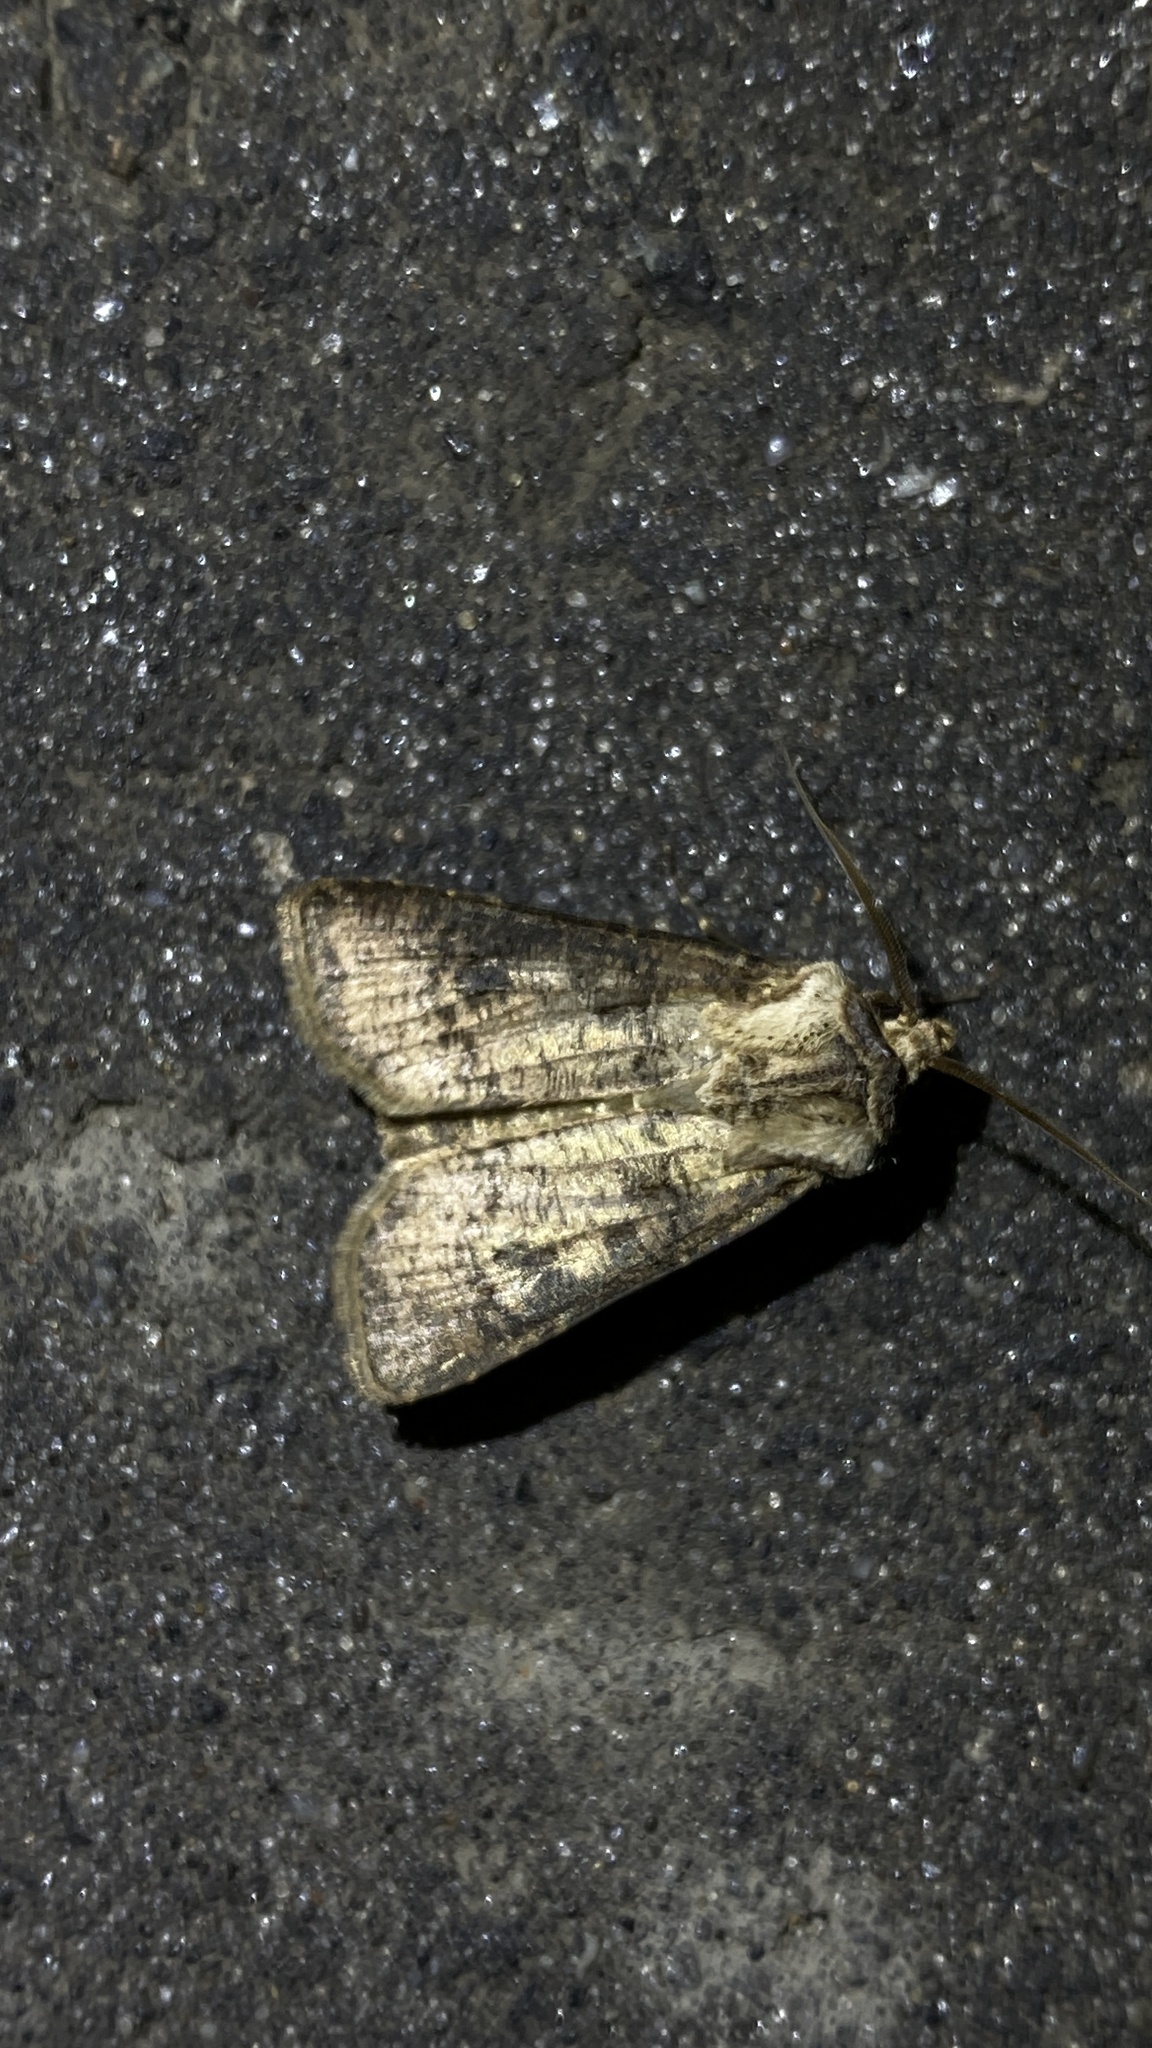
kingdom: Animalia
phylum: Arthropoda
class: Insecta
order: Lepidoptera
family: Noctuidae
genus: Agrotis
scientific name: Agrotis clavis
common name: Heart and club
